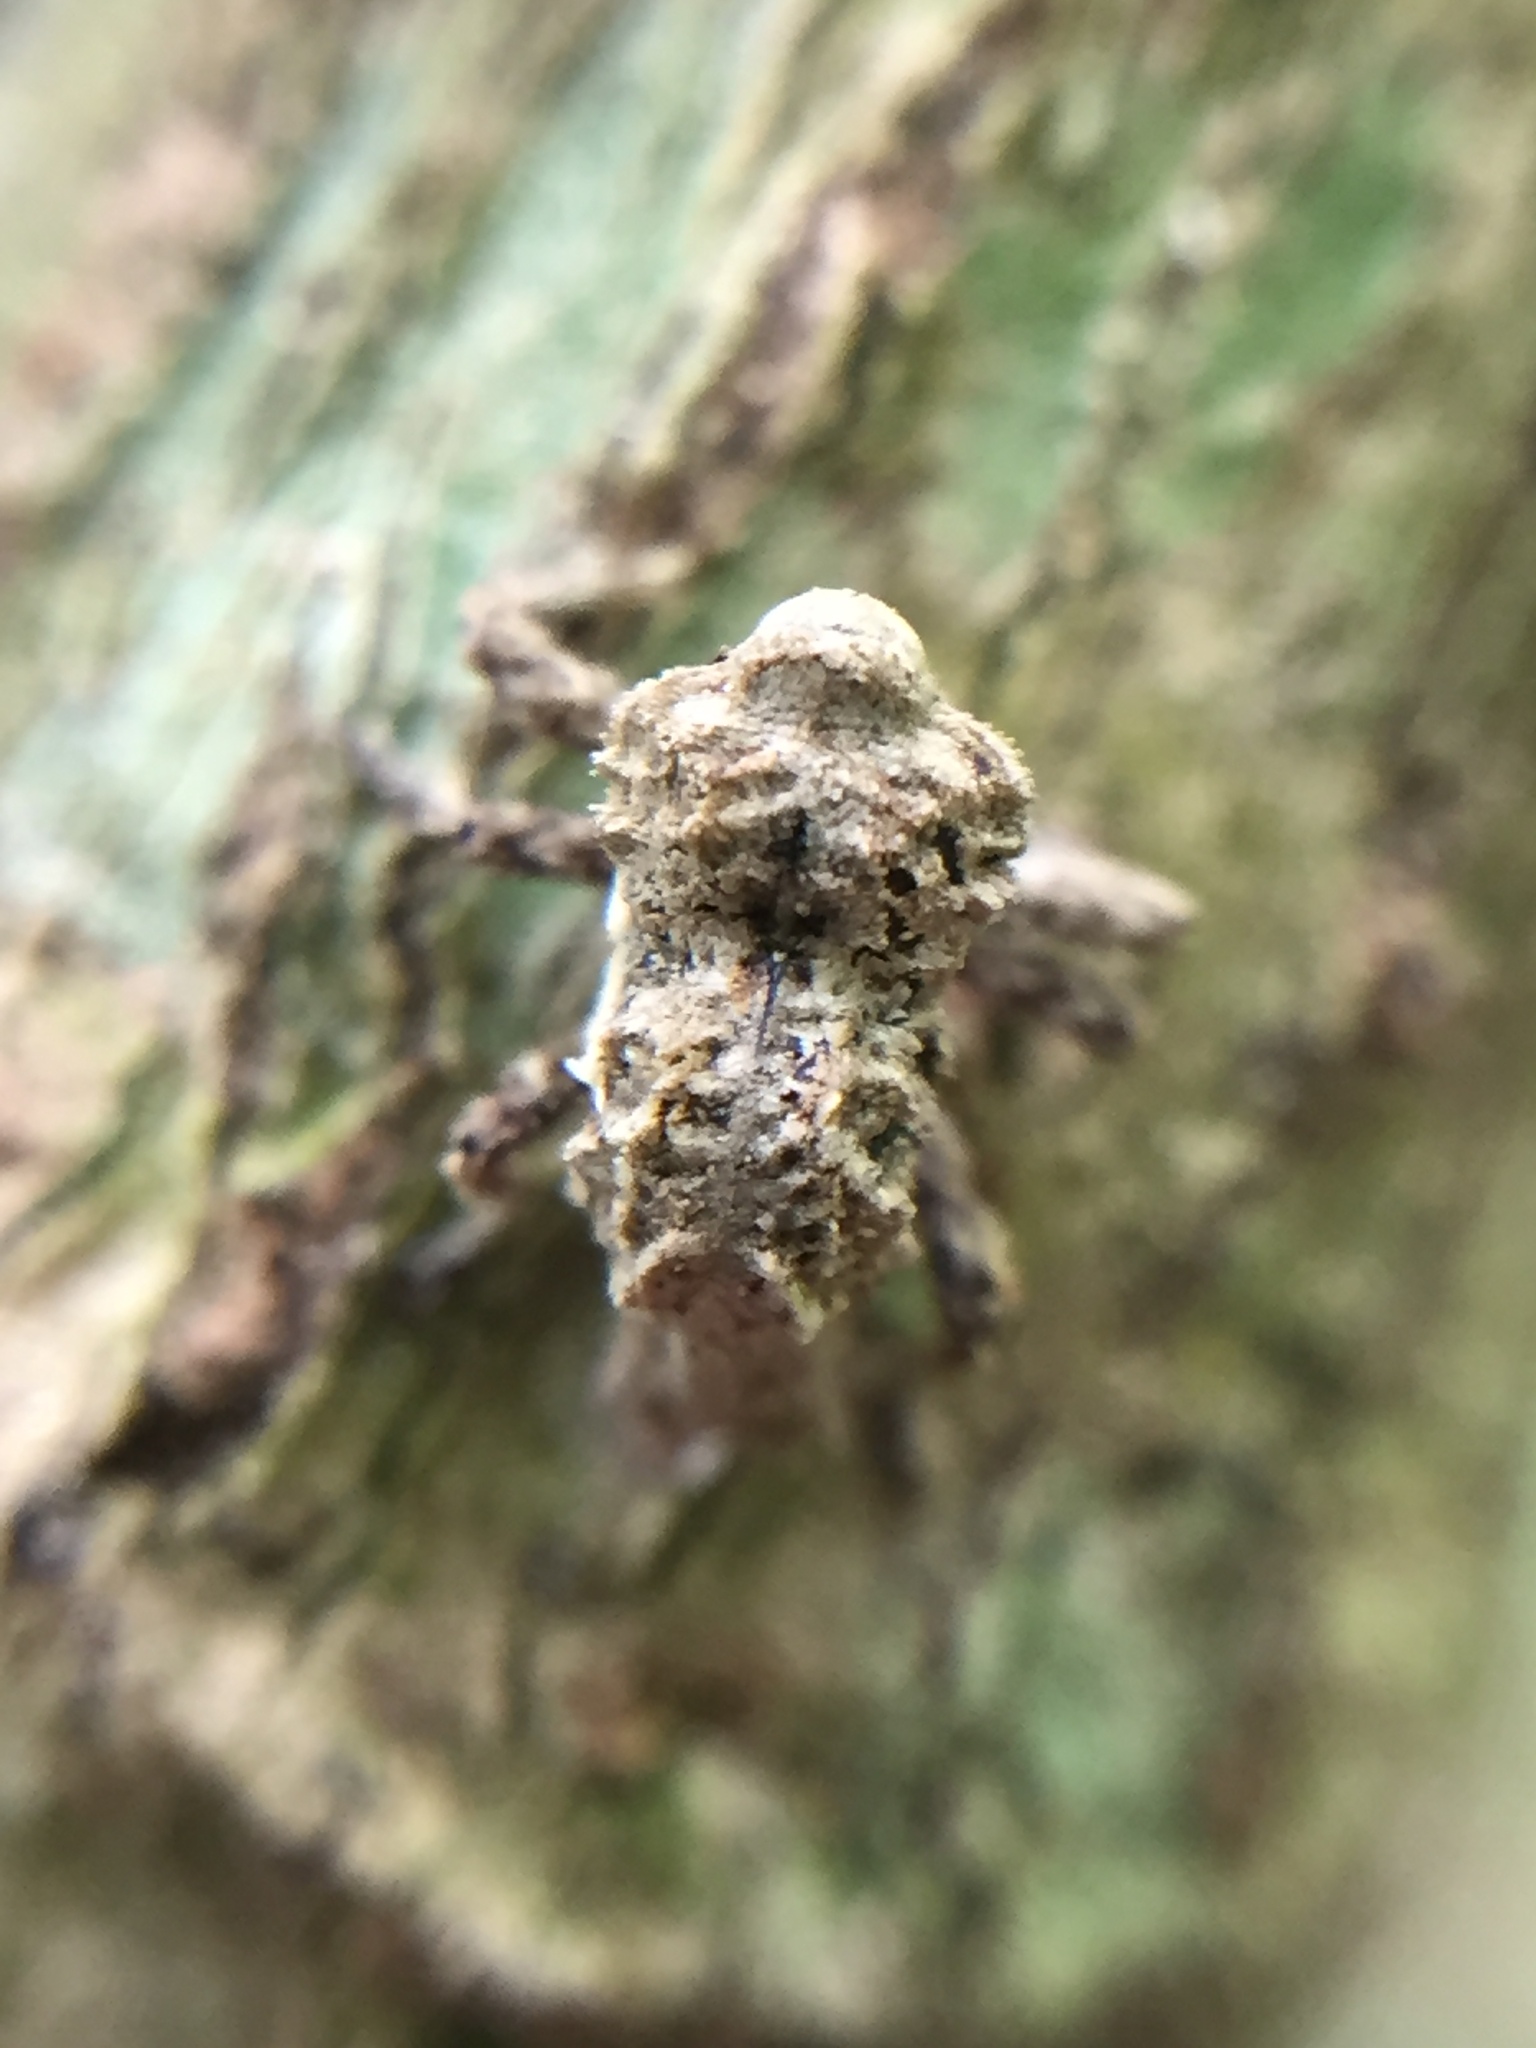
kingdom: Animalia
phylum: Arthropoda
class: Insecta
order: Coleoptera
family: Curculionidae
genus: Indecentia
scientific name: Indecentia nubila
